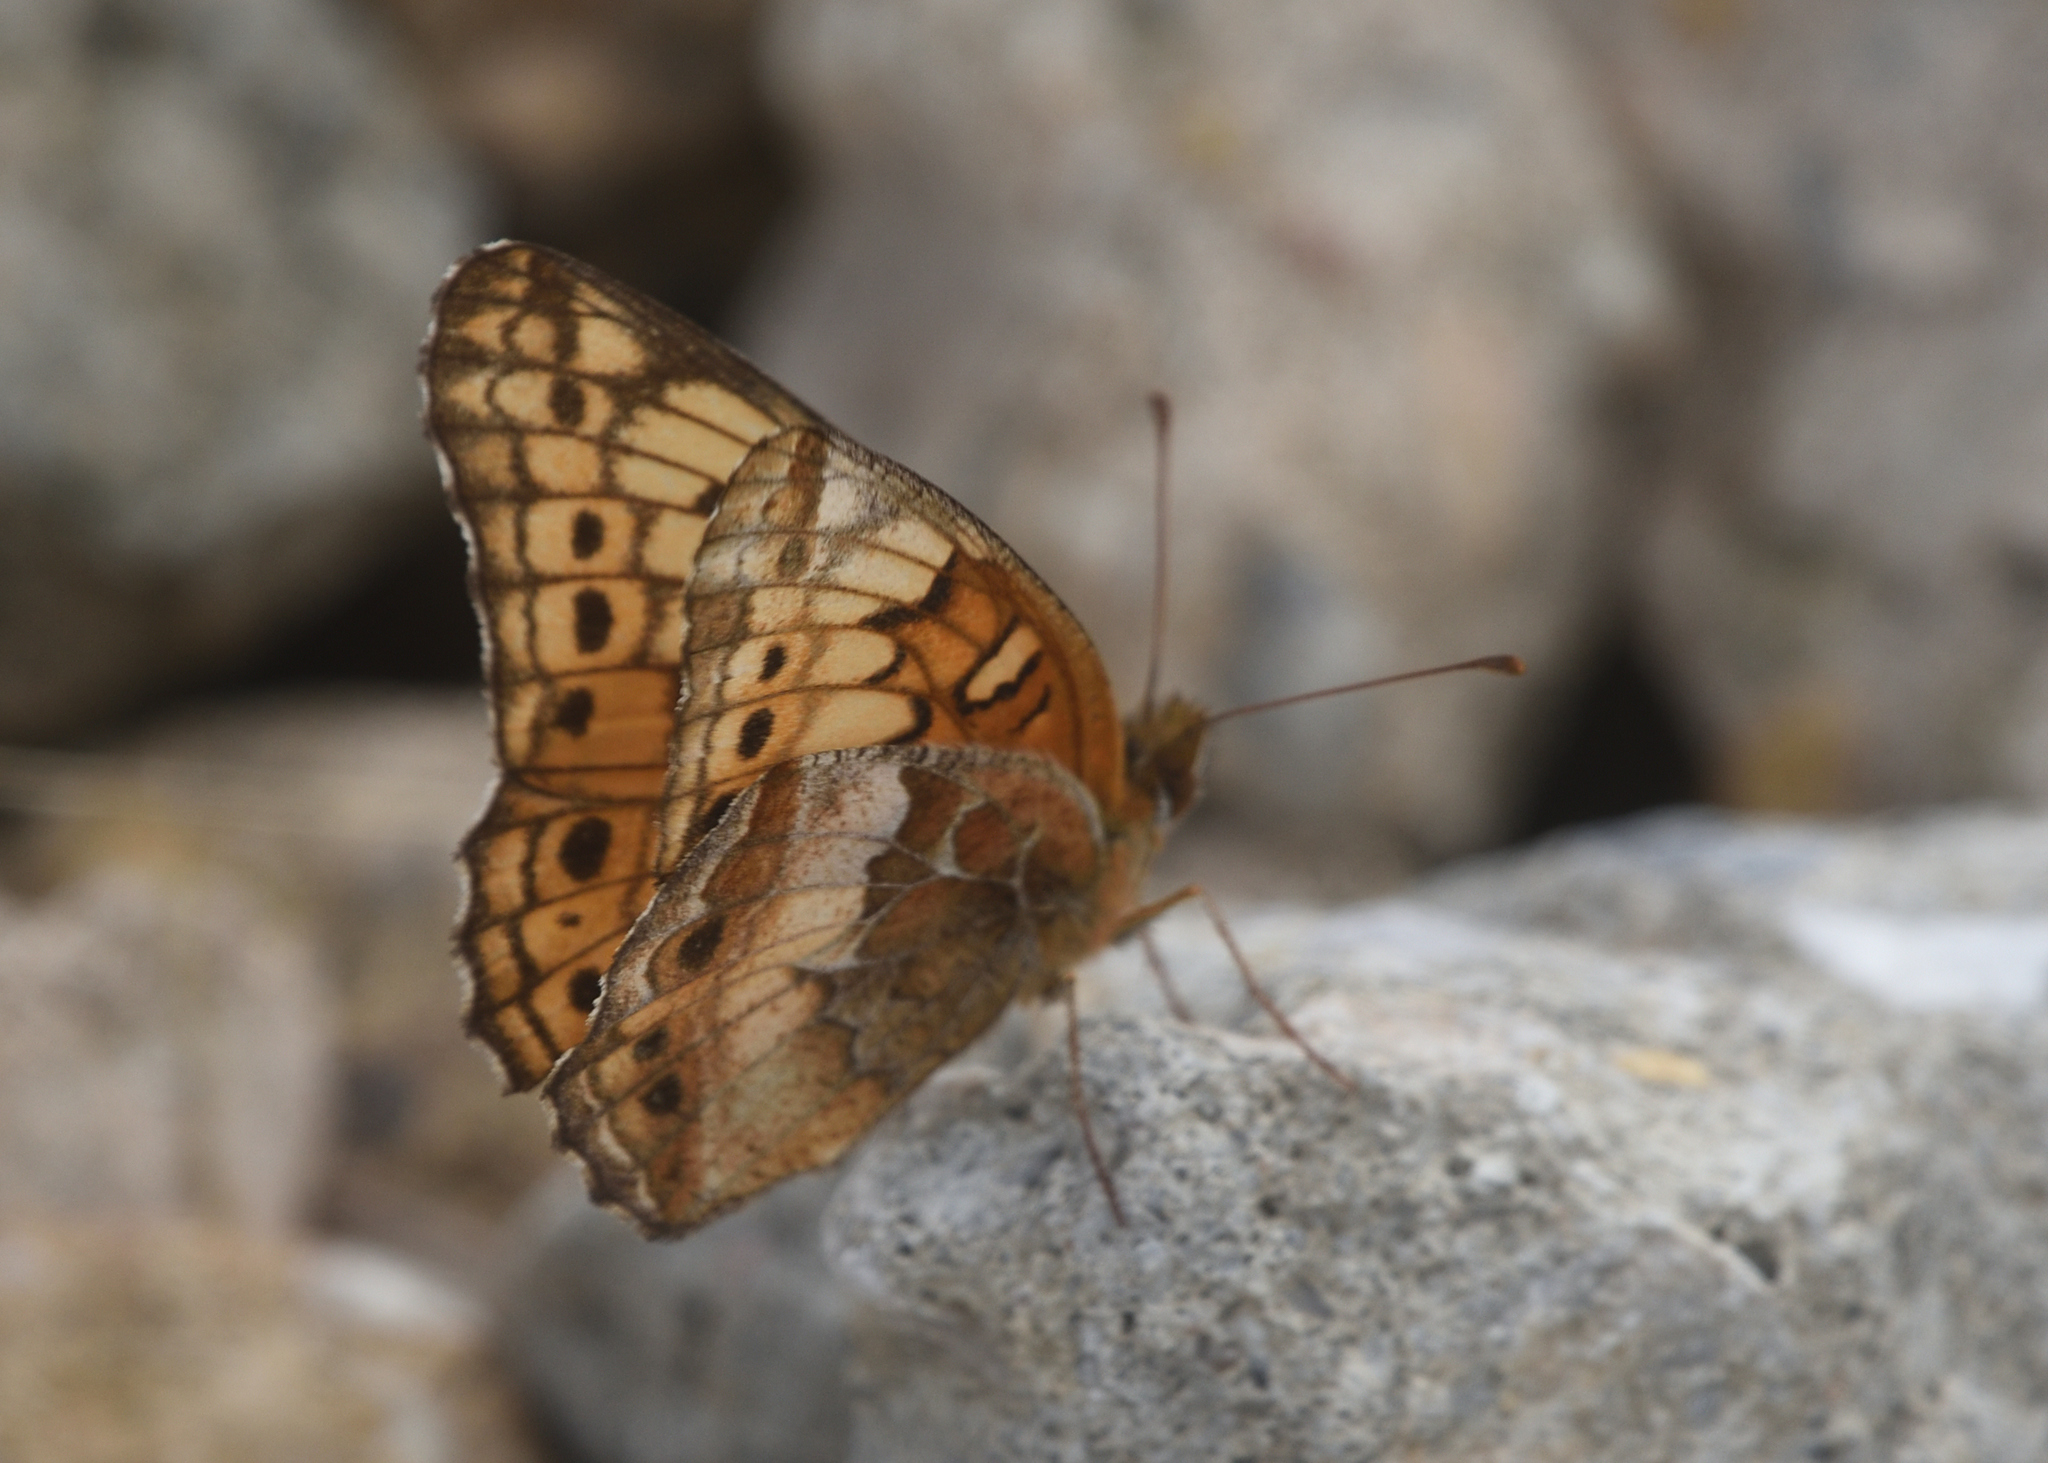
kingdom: Animalia
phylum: Arthropoda
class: Insecta
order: Lepidoptera
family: Nymphalidae
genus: Euptoieta
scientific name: Euptoieta claudia
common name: Variegated fritillary
